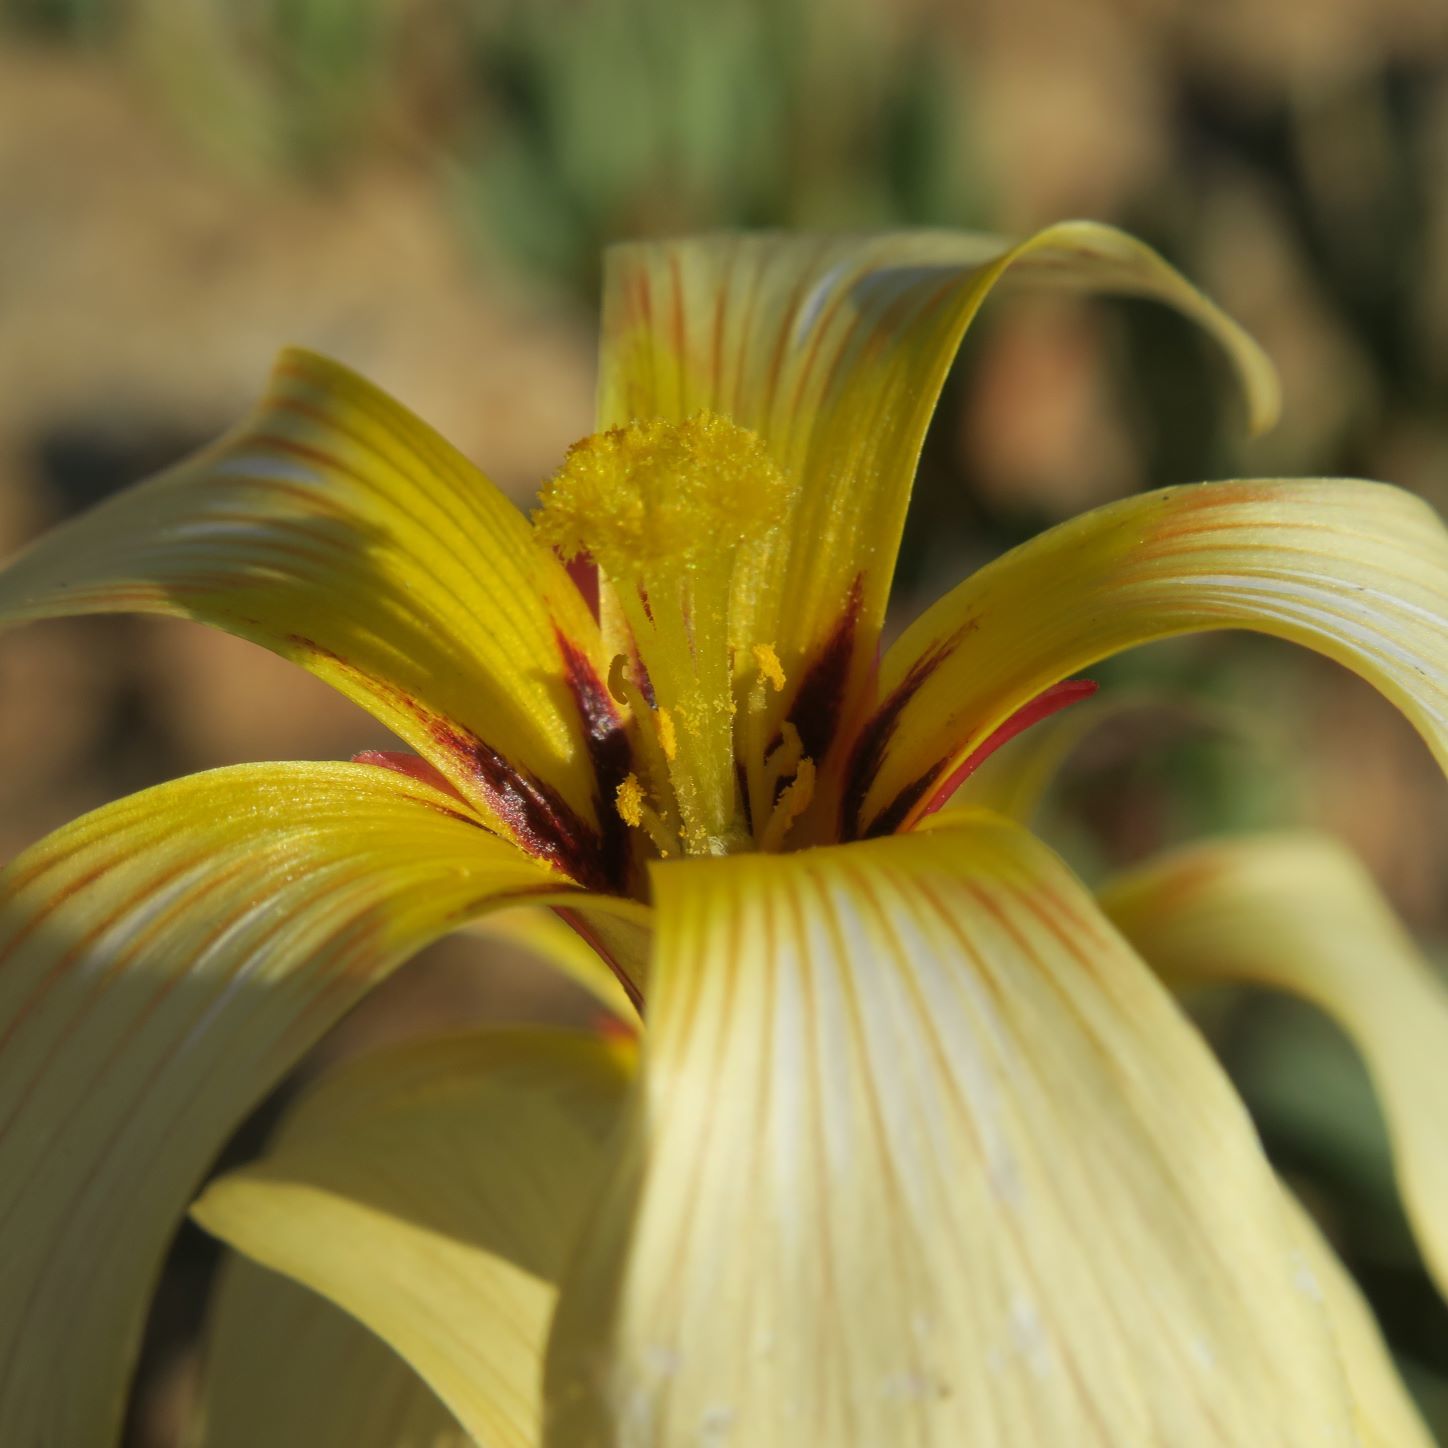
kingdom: Plantae
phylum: Tracheophyta
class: Magnoliopsida
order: Oxalidales
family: Oxalidaceae
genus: Oxalis
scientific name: Oxalis obtusa
